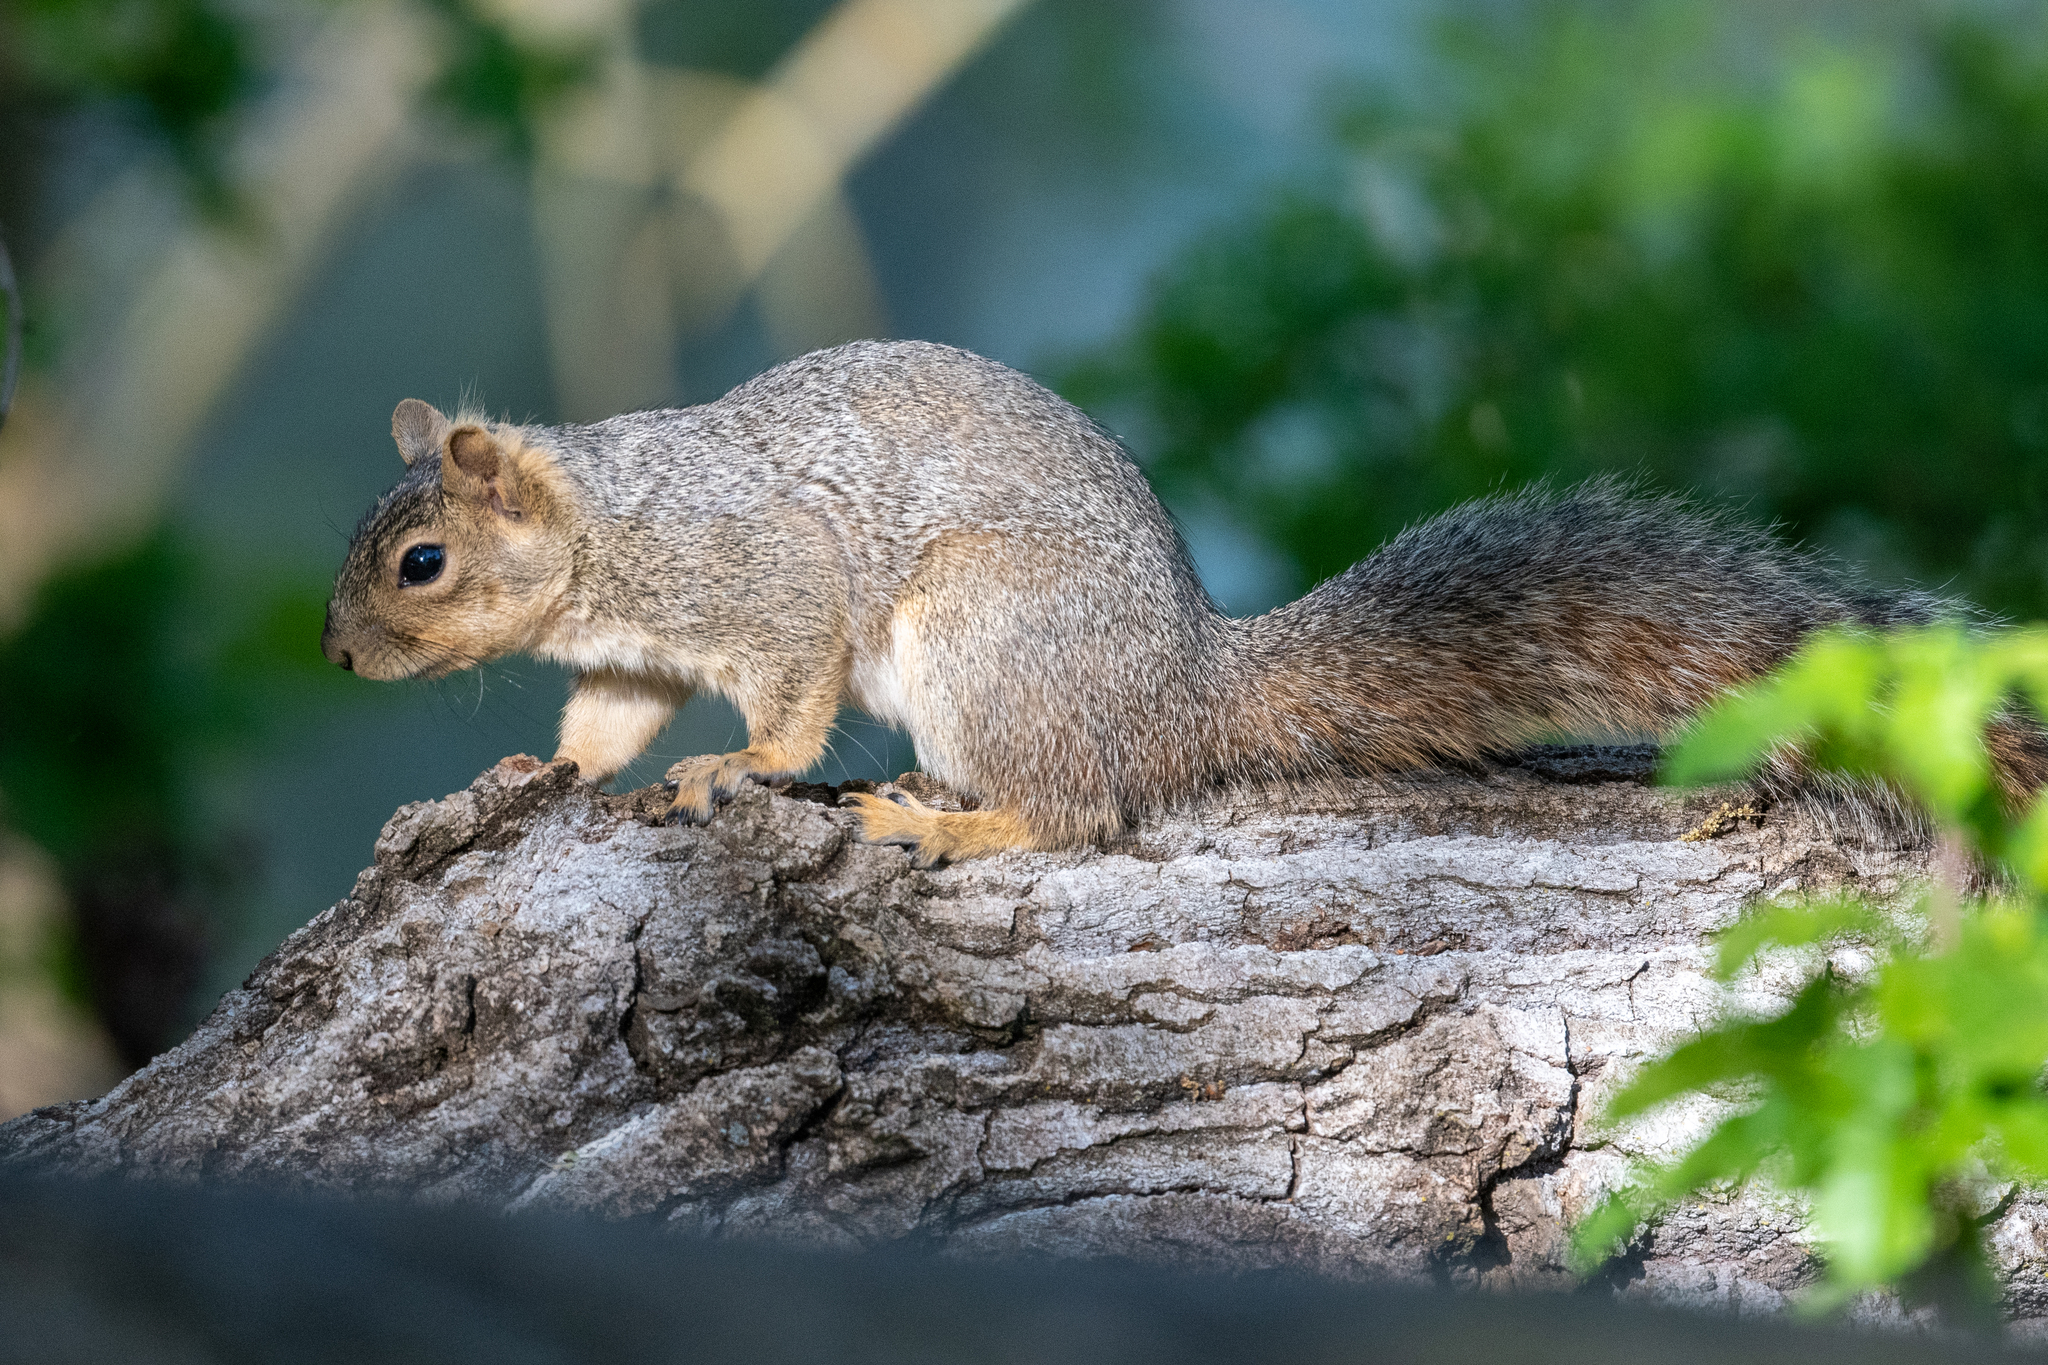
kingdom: Animalia
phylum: Chordata
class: Mammalia
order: Rodentia
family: Sciuridae
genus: Sciurus
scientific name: Sciurus niger
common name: Fox squirrel
